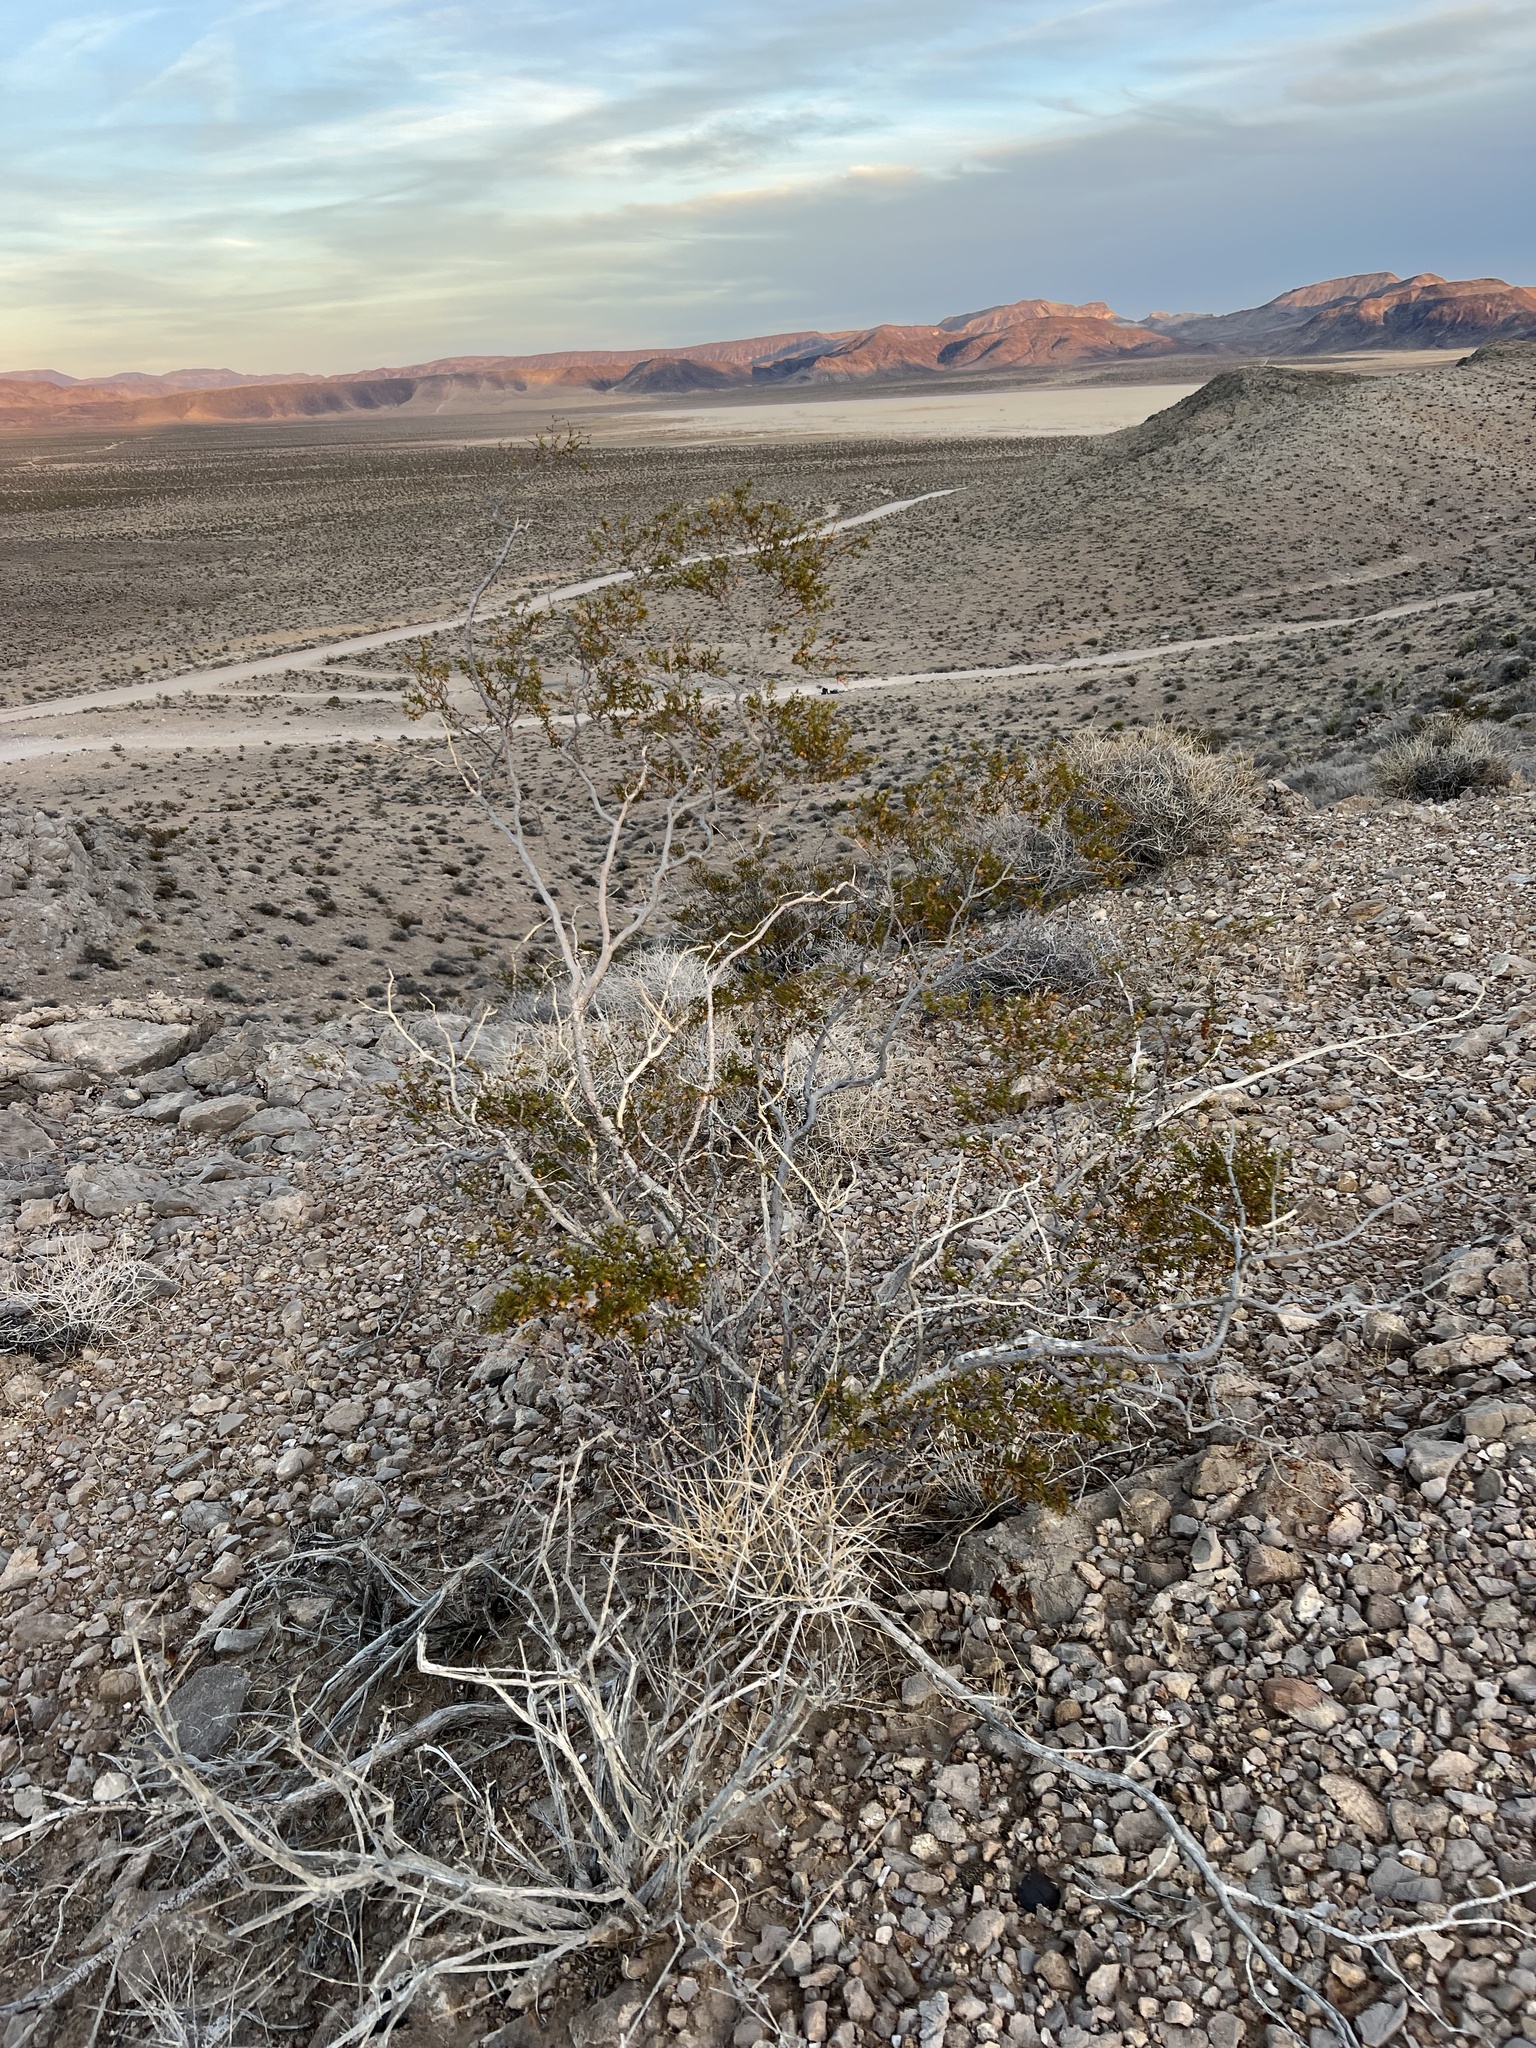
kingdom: Plantae
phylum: Tracheophyta
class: Magnoliopsida
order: Zygophyllales
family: Zygophyllaceae
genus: Larrea
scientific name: Larrea tridentata
